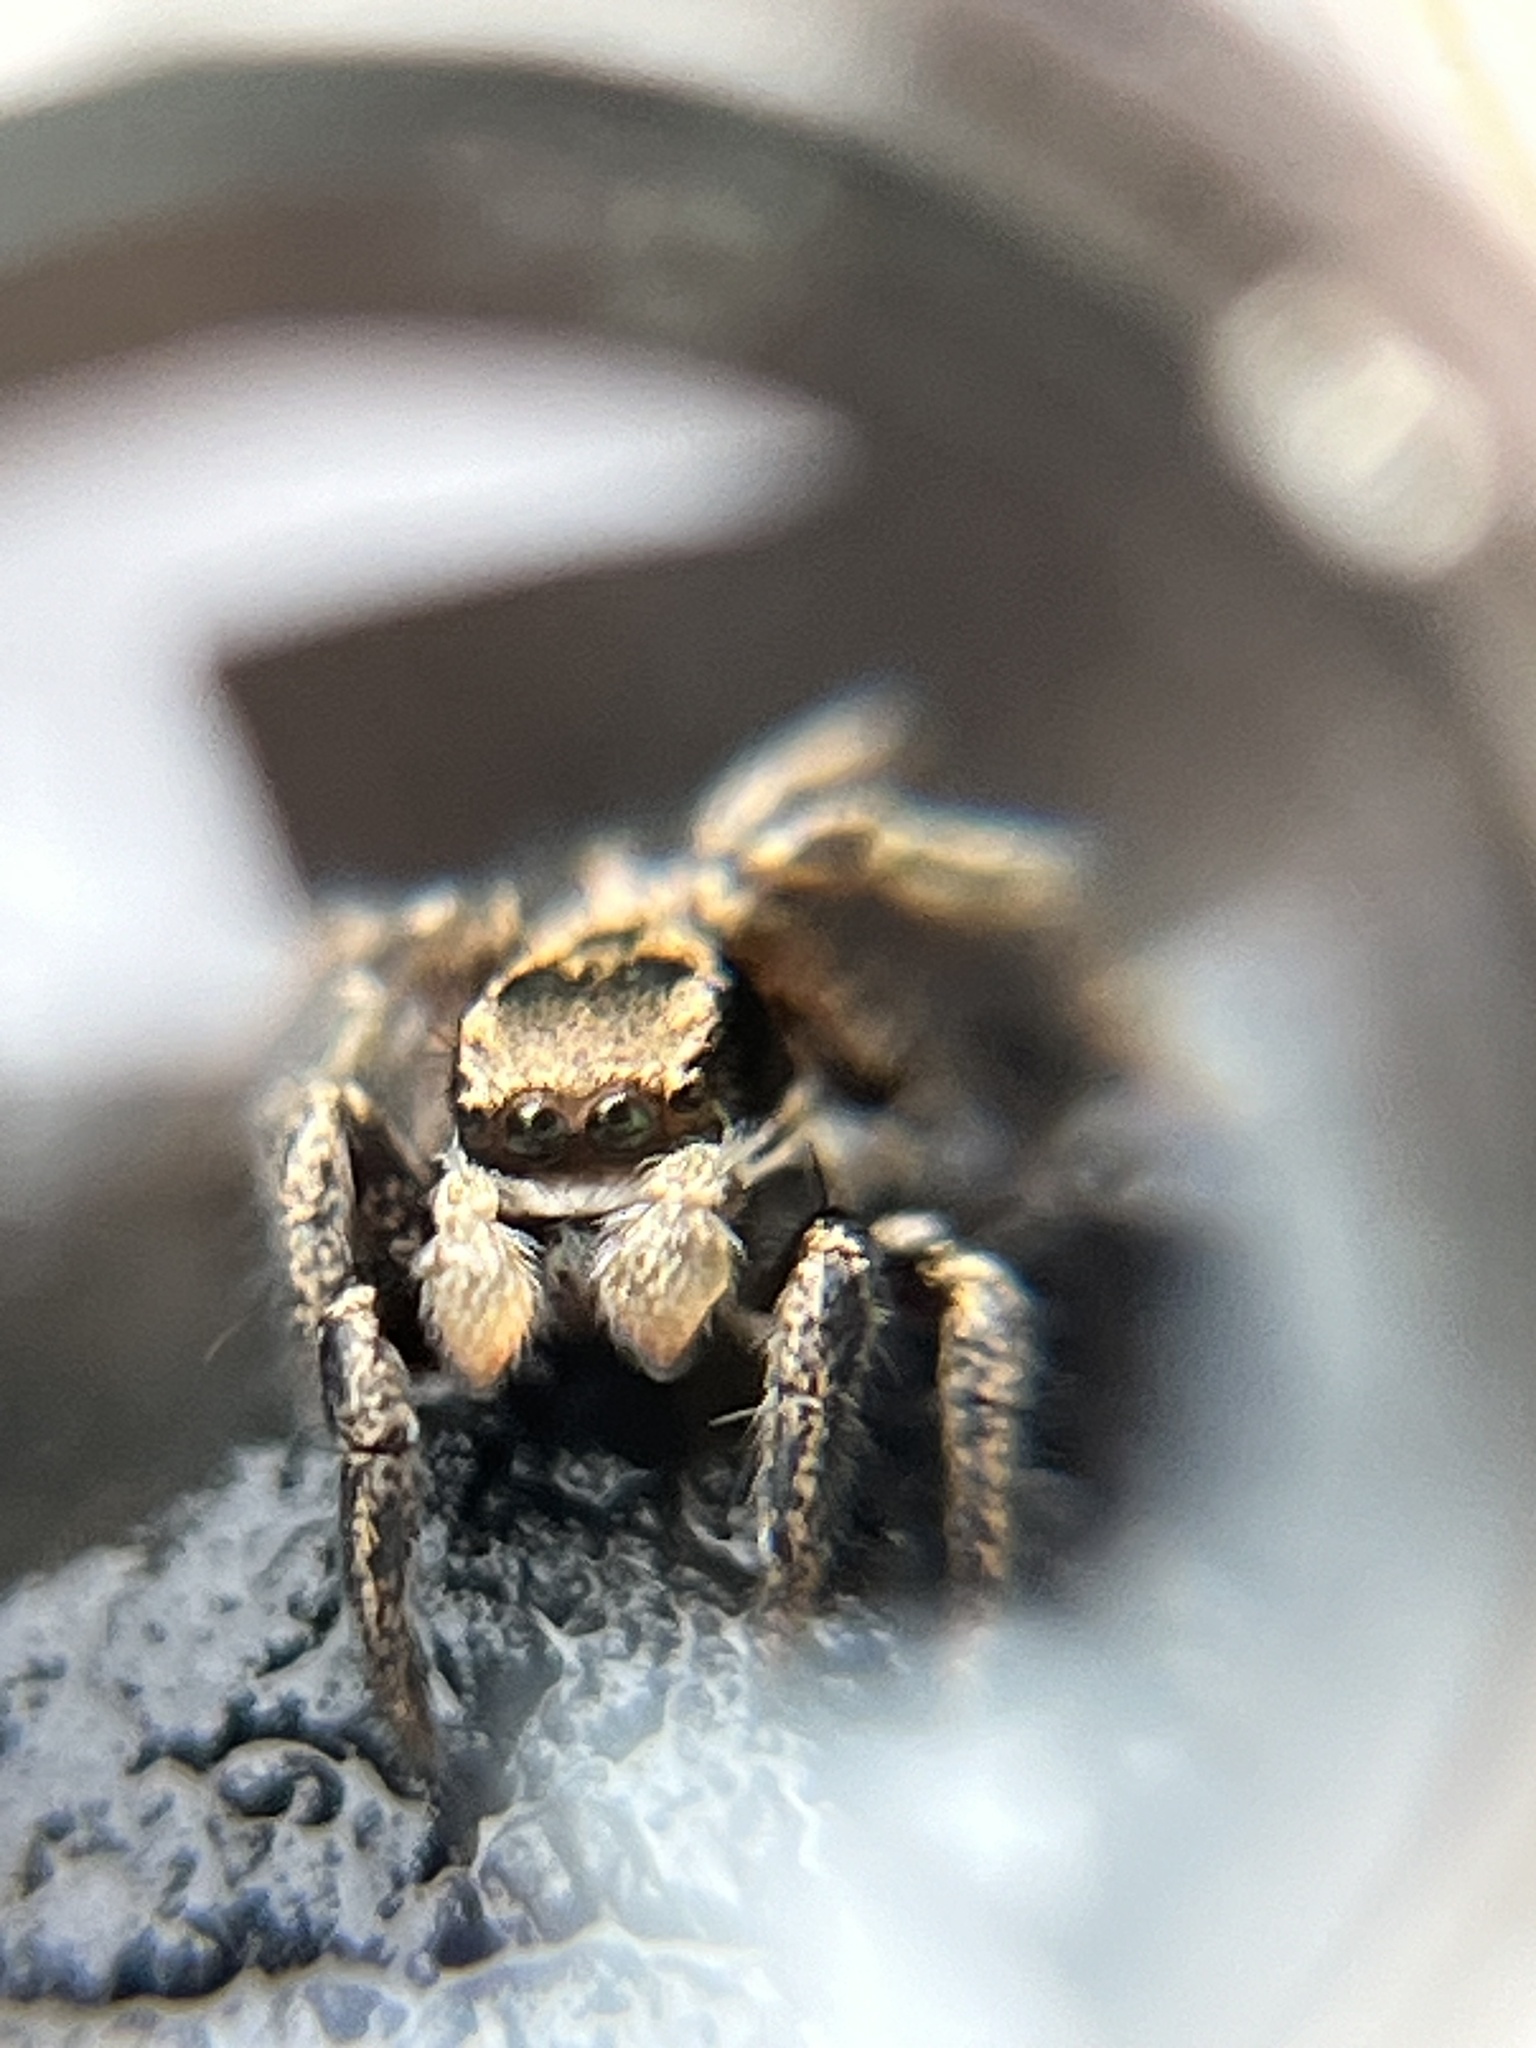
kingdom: Animalia
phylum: Arthropoda
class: Arachnida
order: Araneae
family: Salticidae
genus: Habronattus
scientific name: Habronattus klauseri
